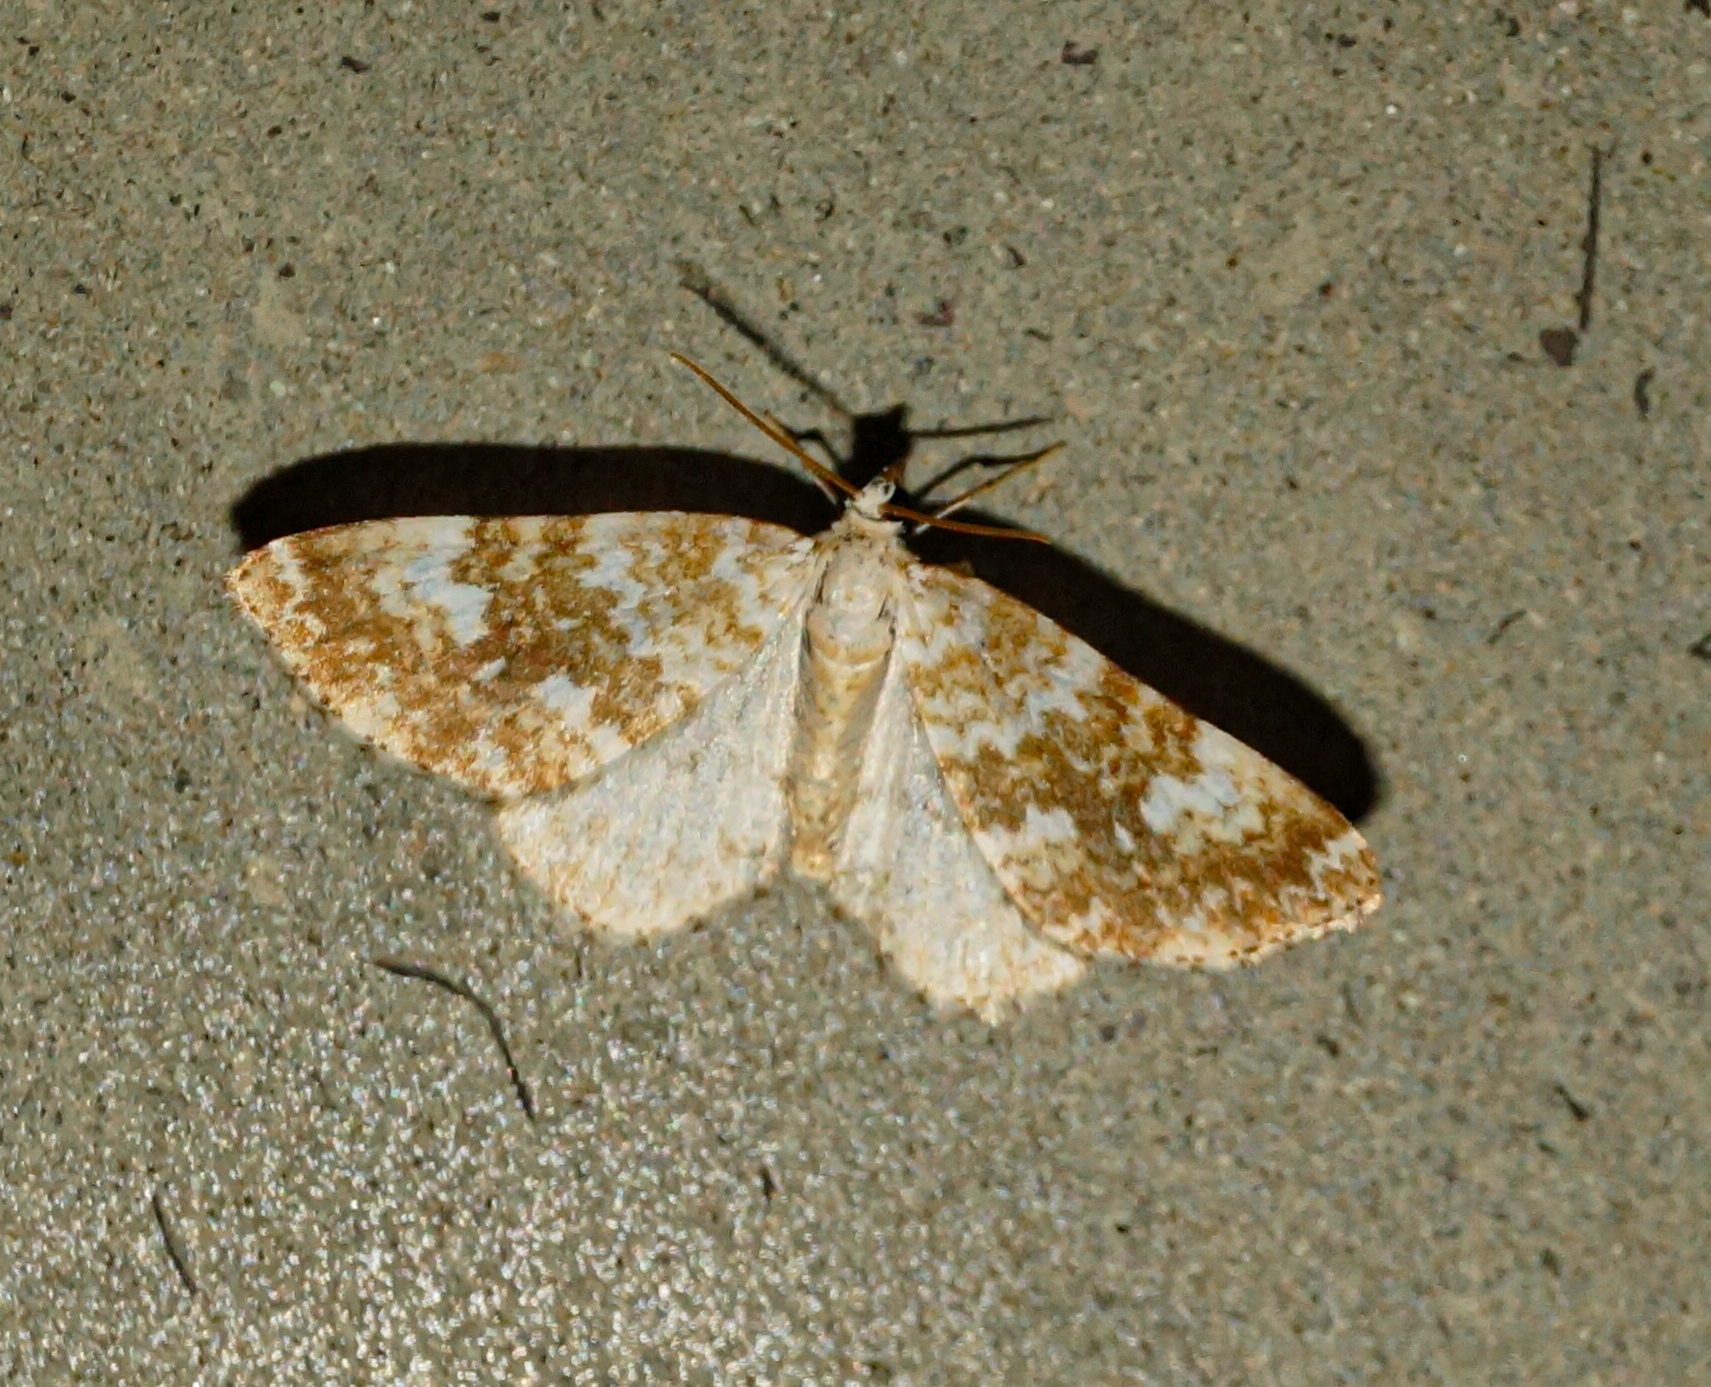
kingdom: Animalia
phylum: Arthropoda
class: Insecta
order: Lepidoptera
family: Geometridae
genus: Perizoma
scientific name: Perizoma flavofasciata
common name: Sandy carpet
